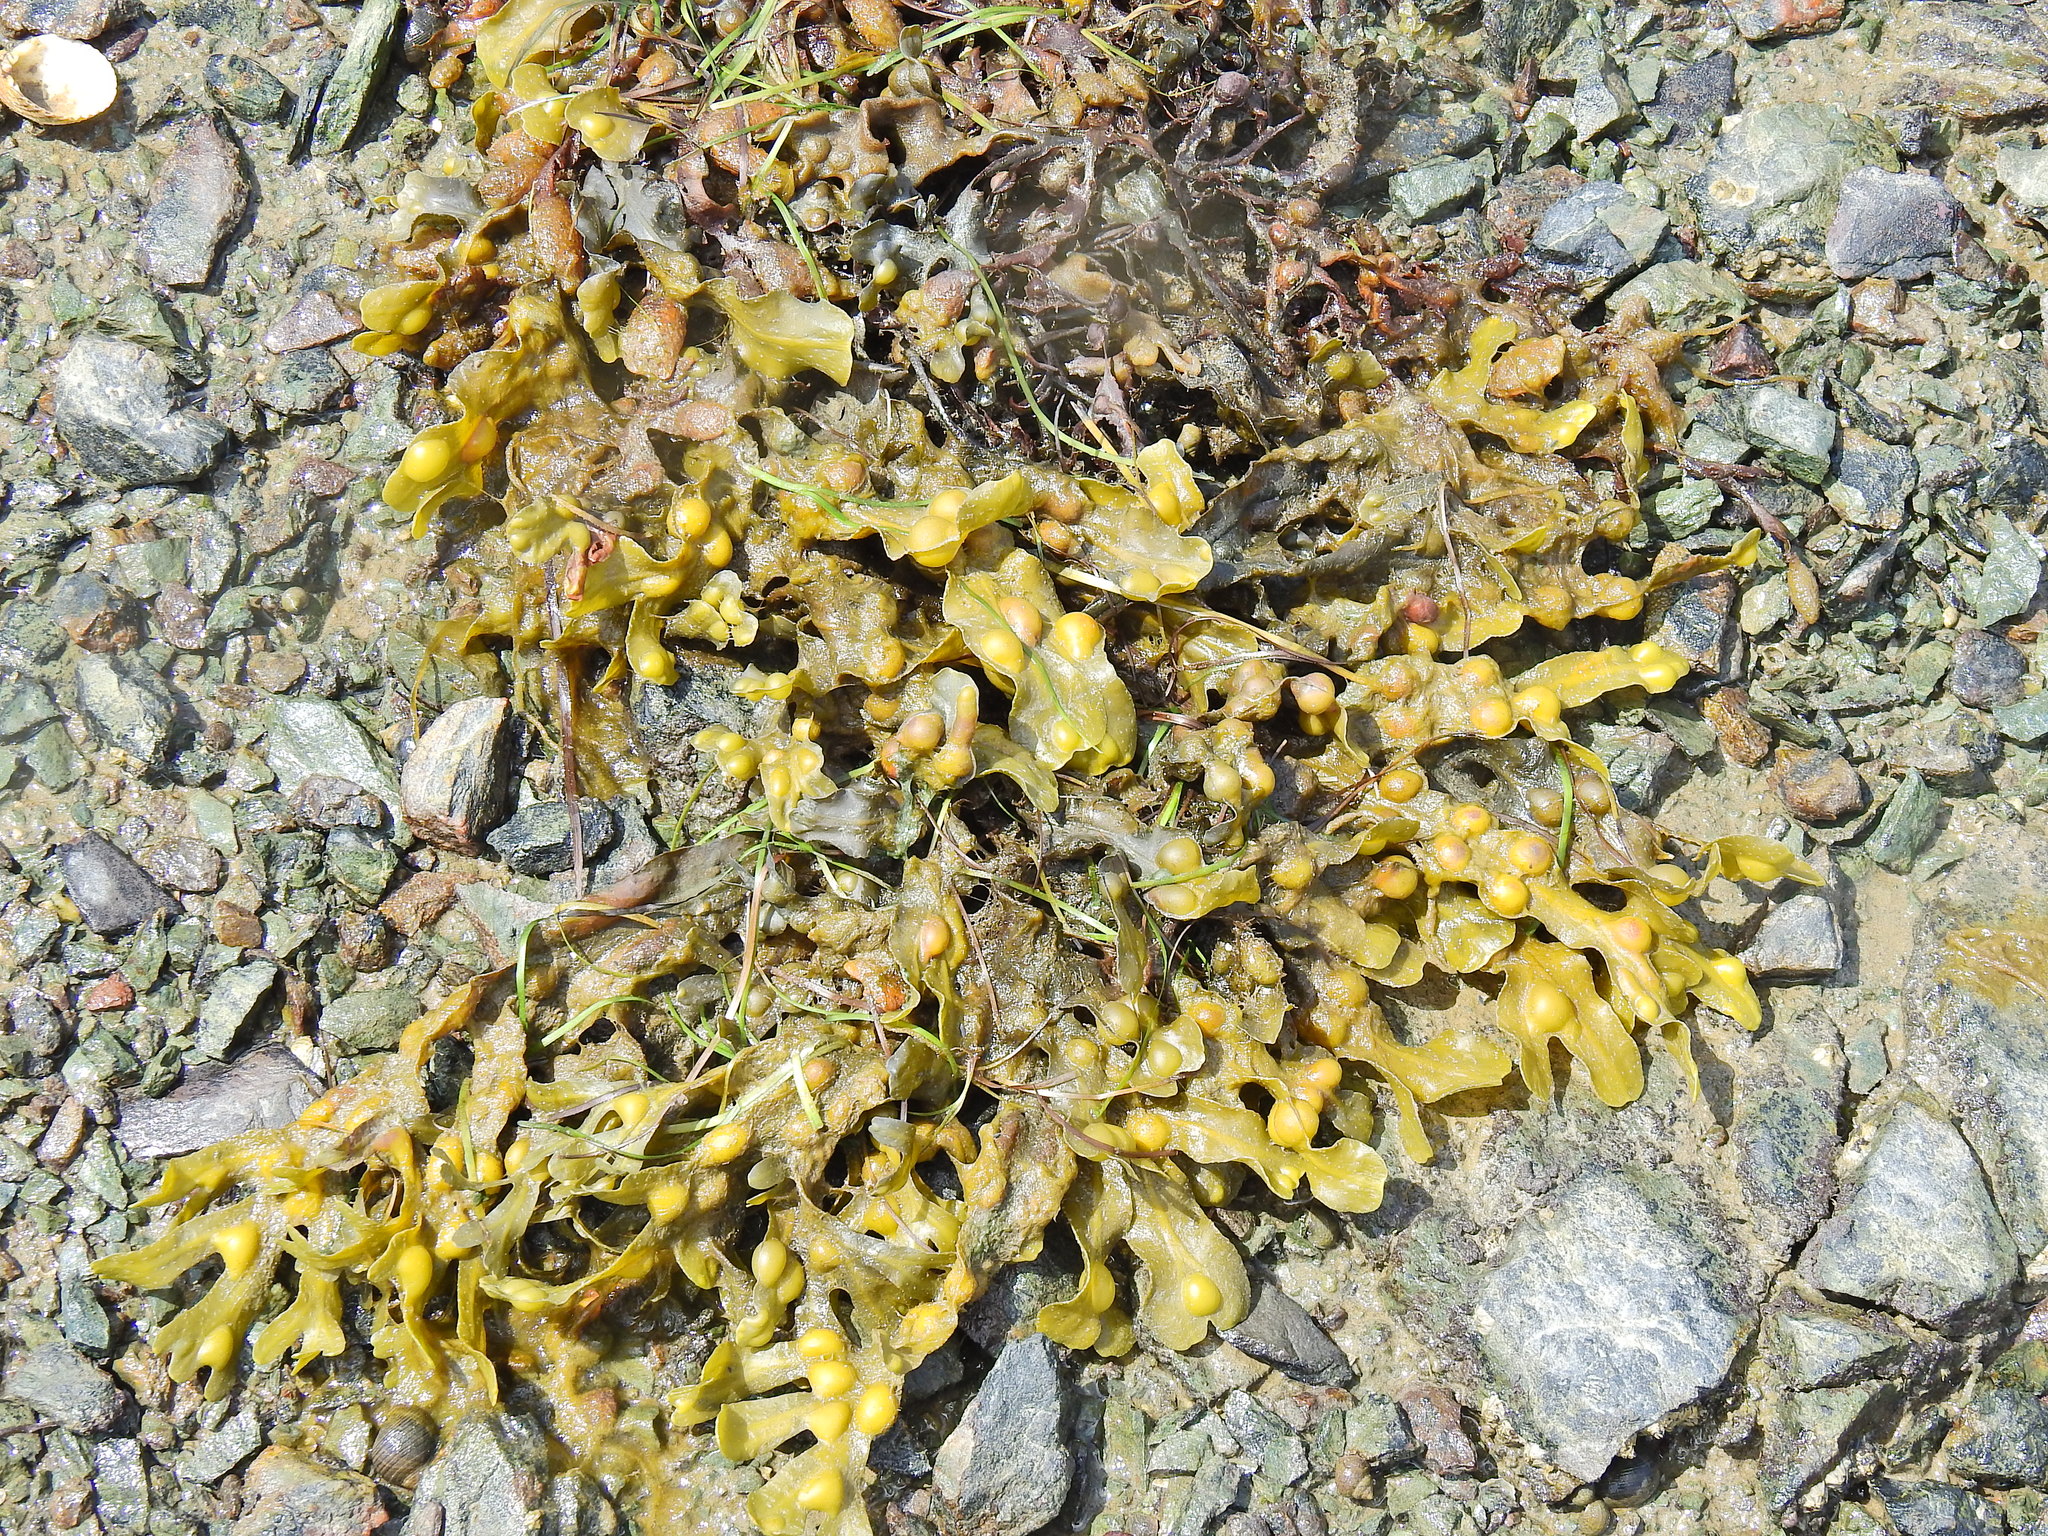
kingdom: Chromista
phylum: Ochrophyta
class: Phaeophyceae
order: Fucales
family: Fucaceae
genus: Fucus
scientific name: Fucus vesiculosus
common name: Bladder wrack
